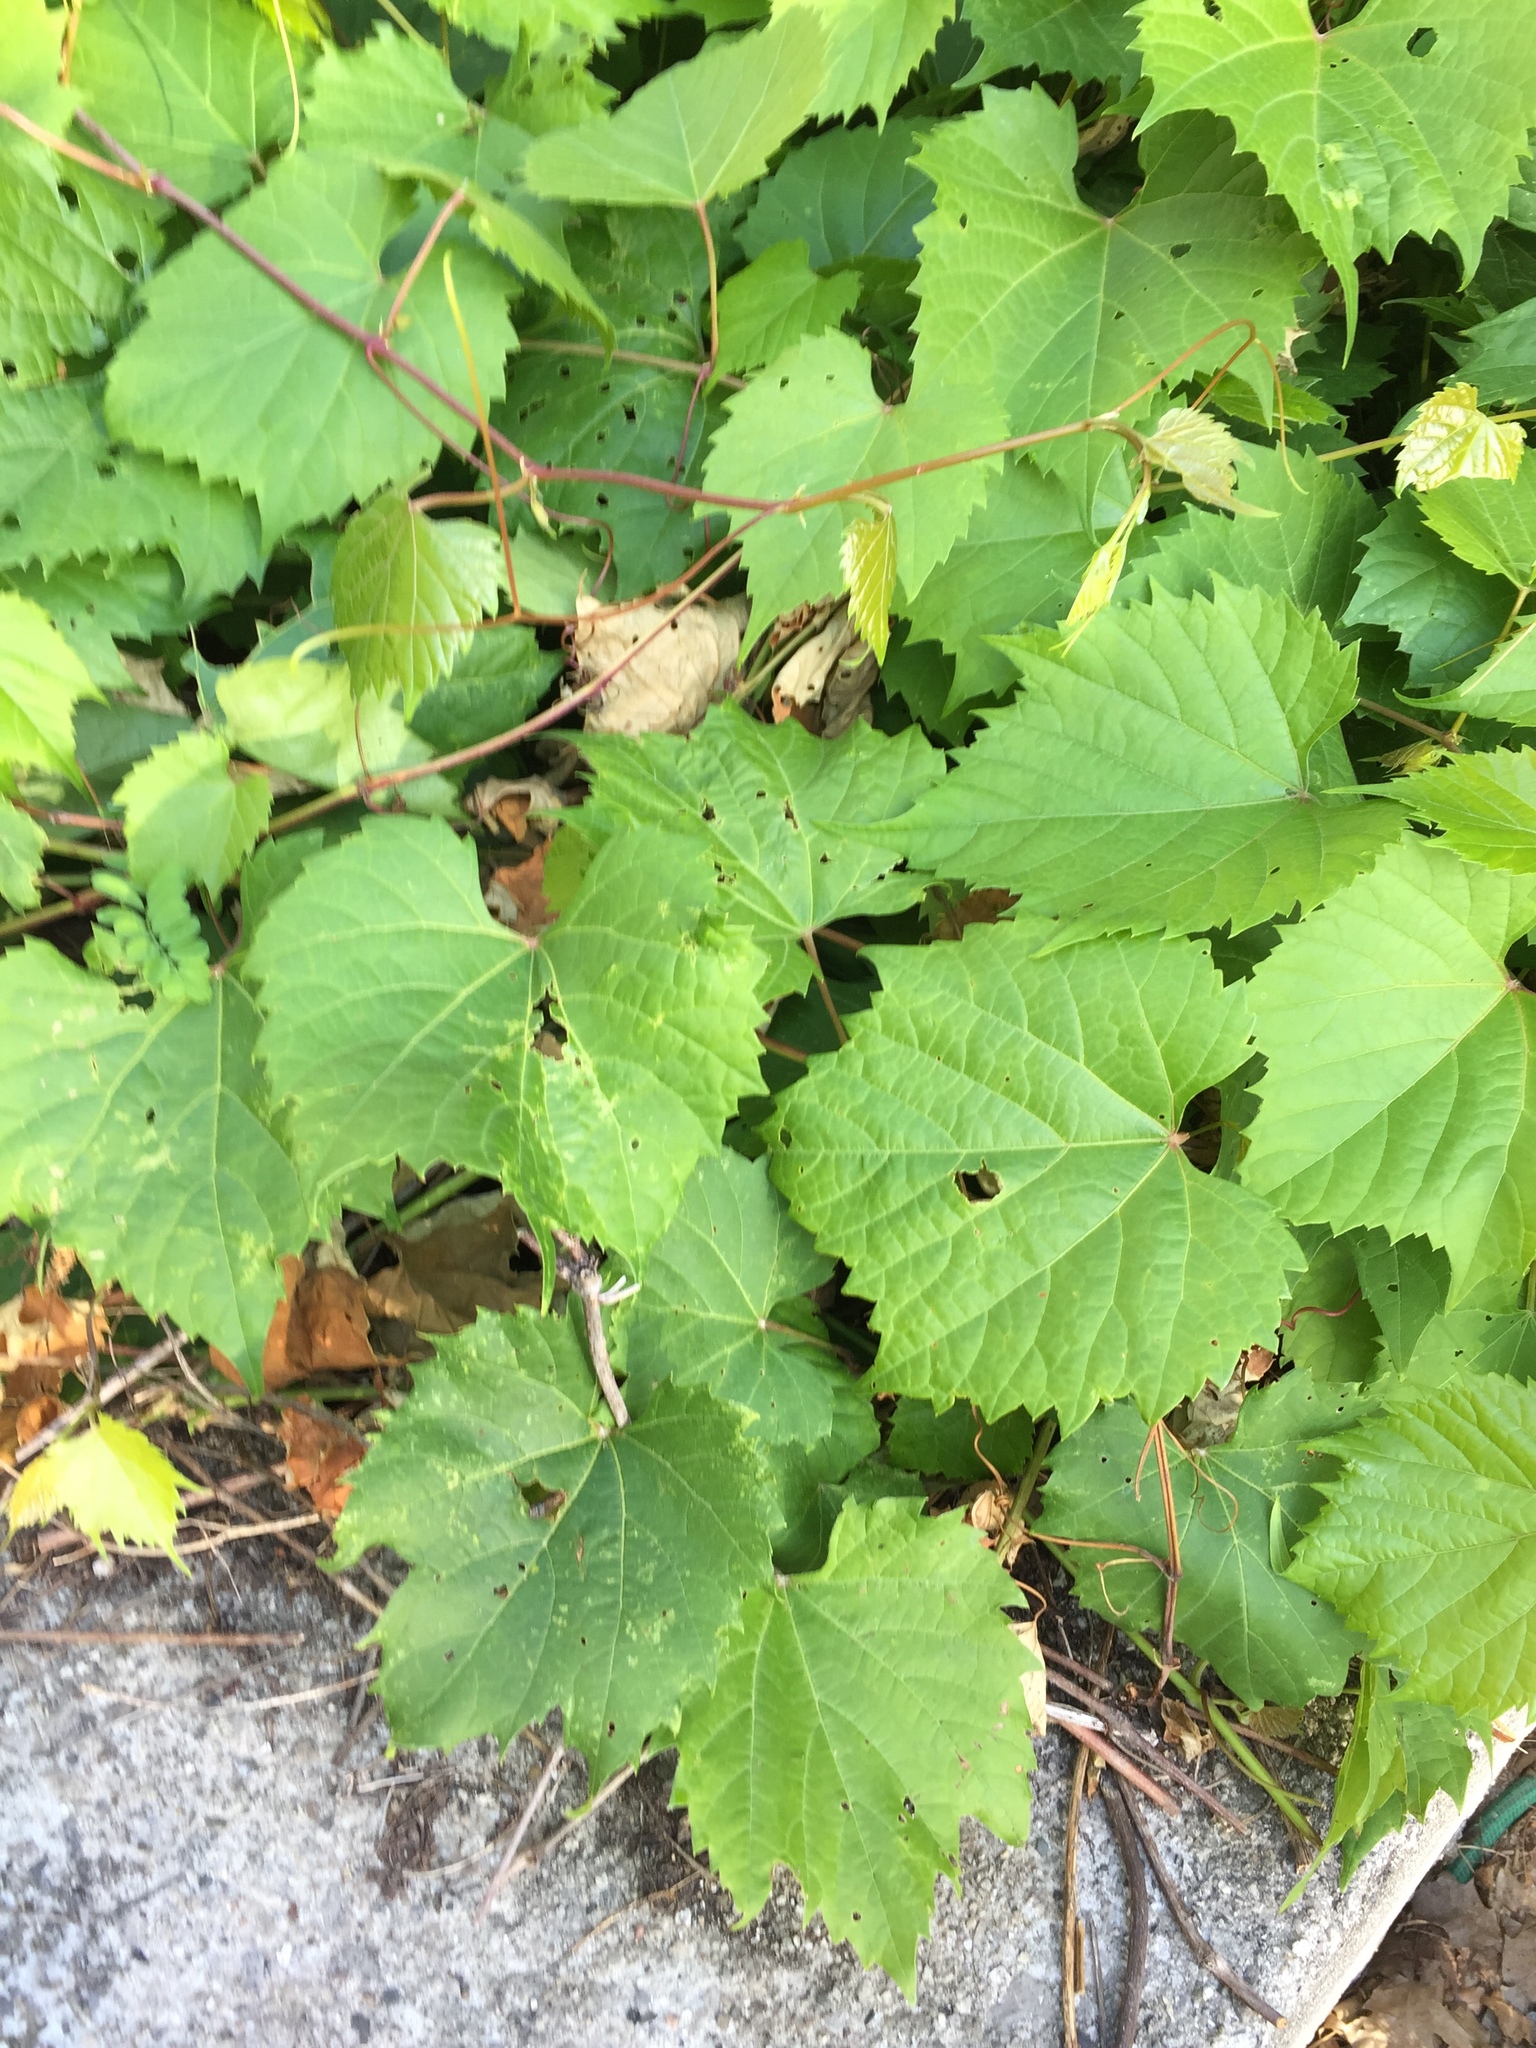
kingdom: Plantae
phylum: Tracheophyta
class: Magnoliopsida
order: Vitales
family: Vitaceae
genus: Vitis
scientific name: Vitis riparia
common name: Frost grape
